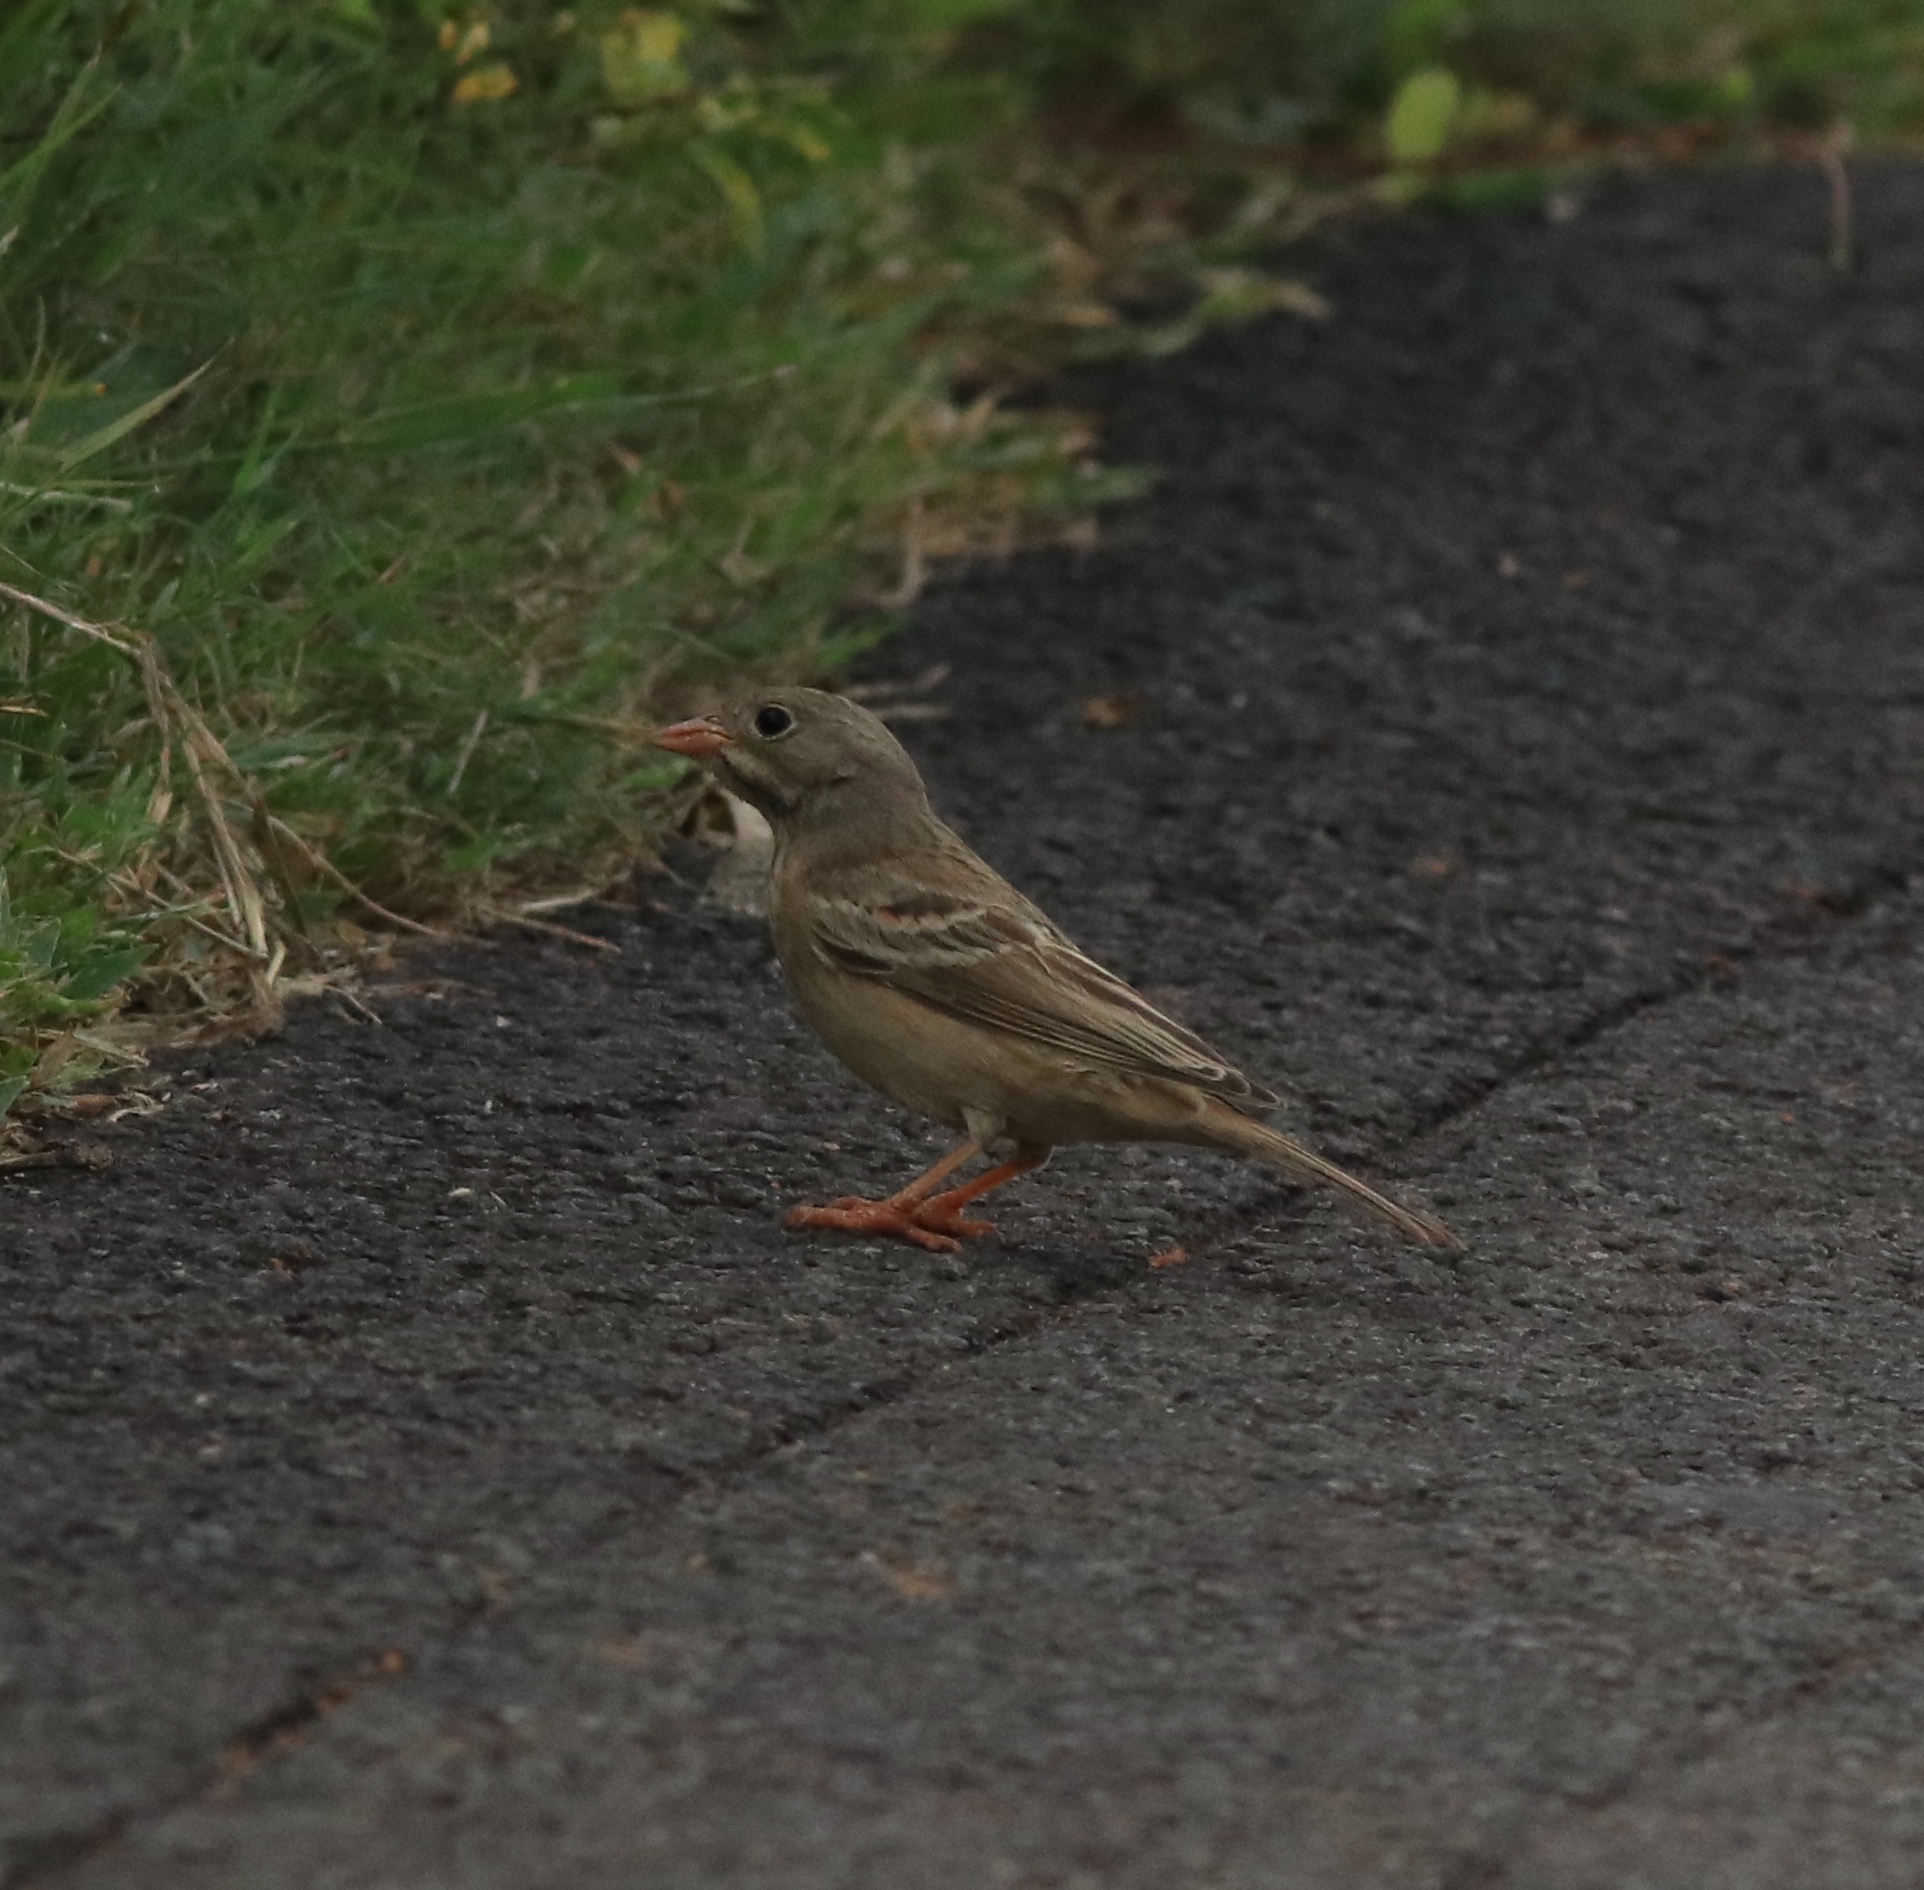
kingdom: Animalia
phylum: Chordata
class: Aves
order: Passeriformes
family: Emberizidae
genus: Emberiza
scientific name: Emberiza buchanani
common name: Grey-necked bunting
